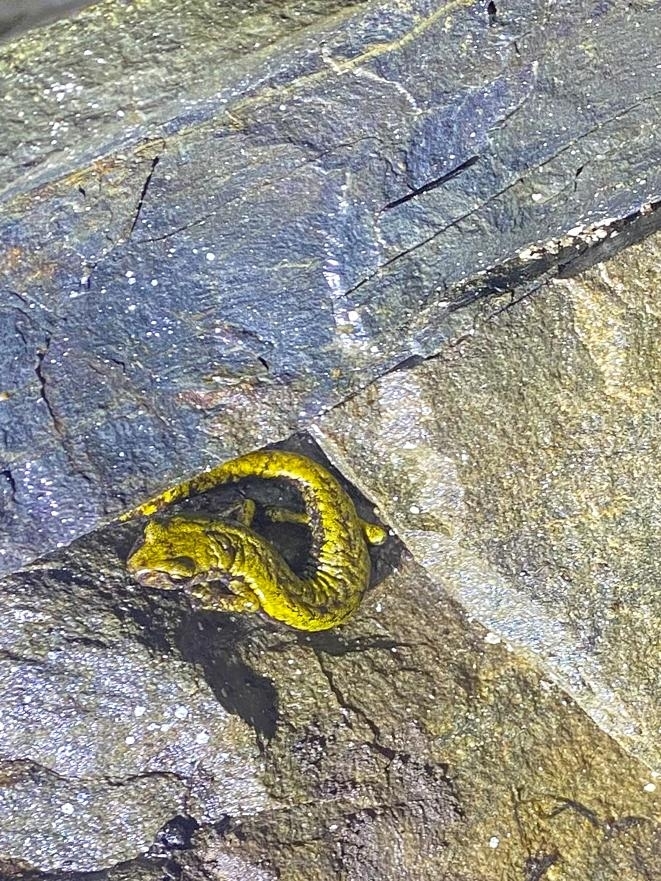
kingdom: Animalia
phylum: Chordata
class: Amphibia
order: Caudata
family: Plethodontidae
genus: Speleomantes
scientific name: Speleomantes strinatii
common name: French cave salamander
